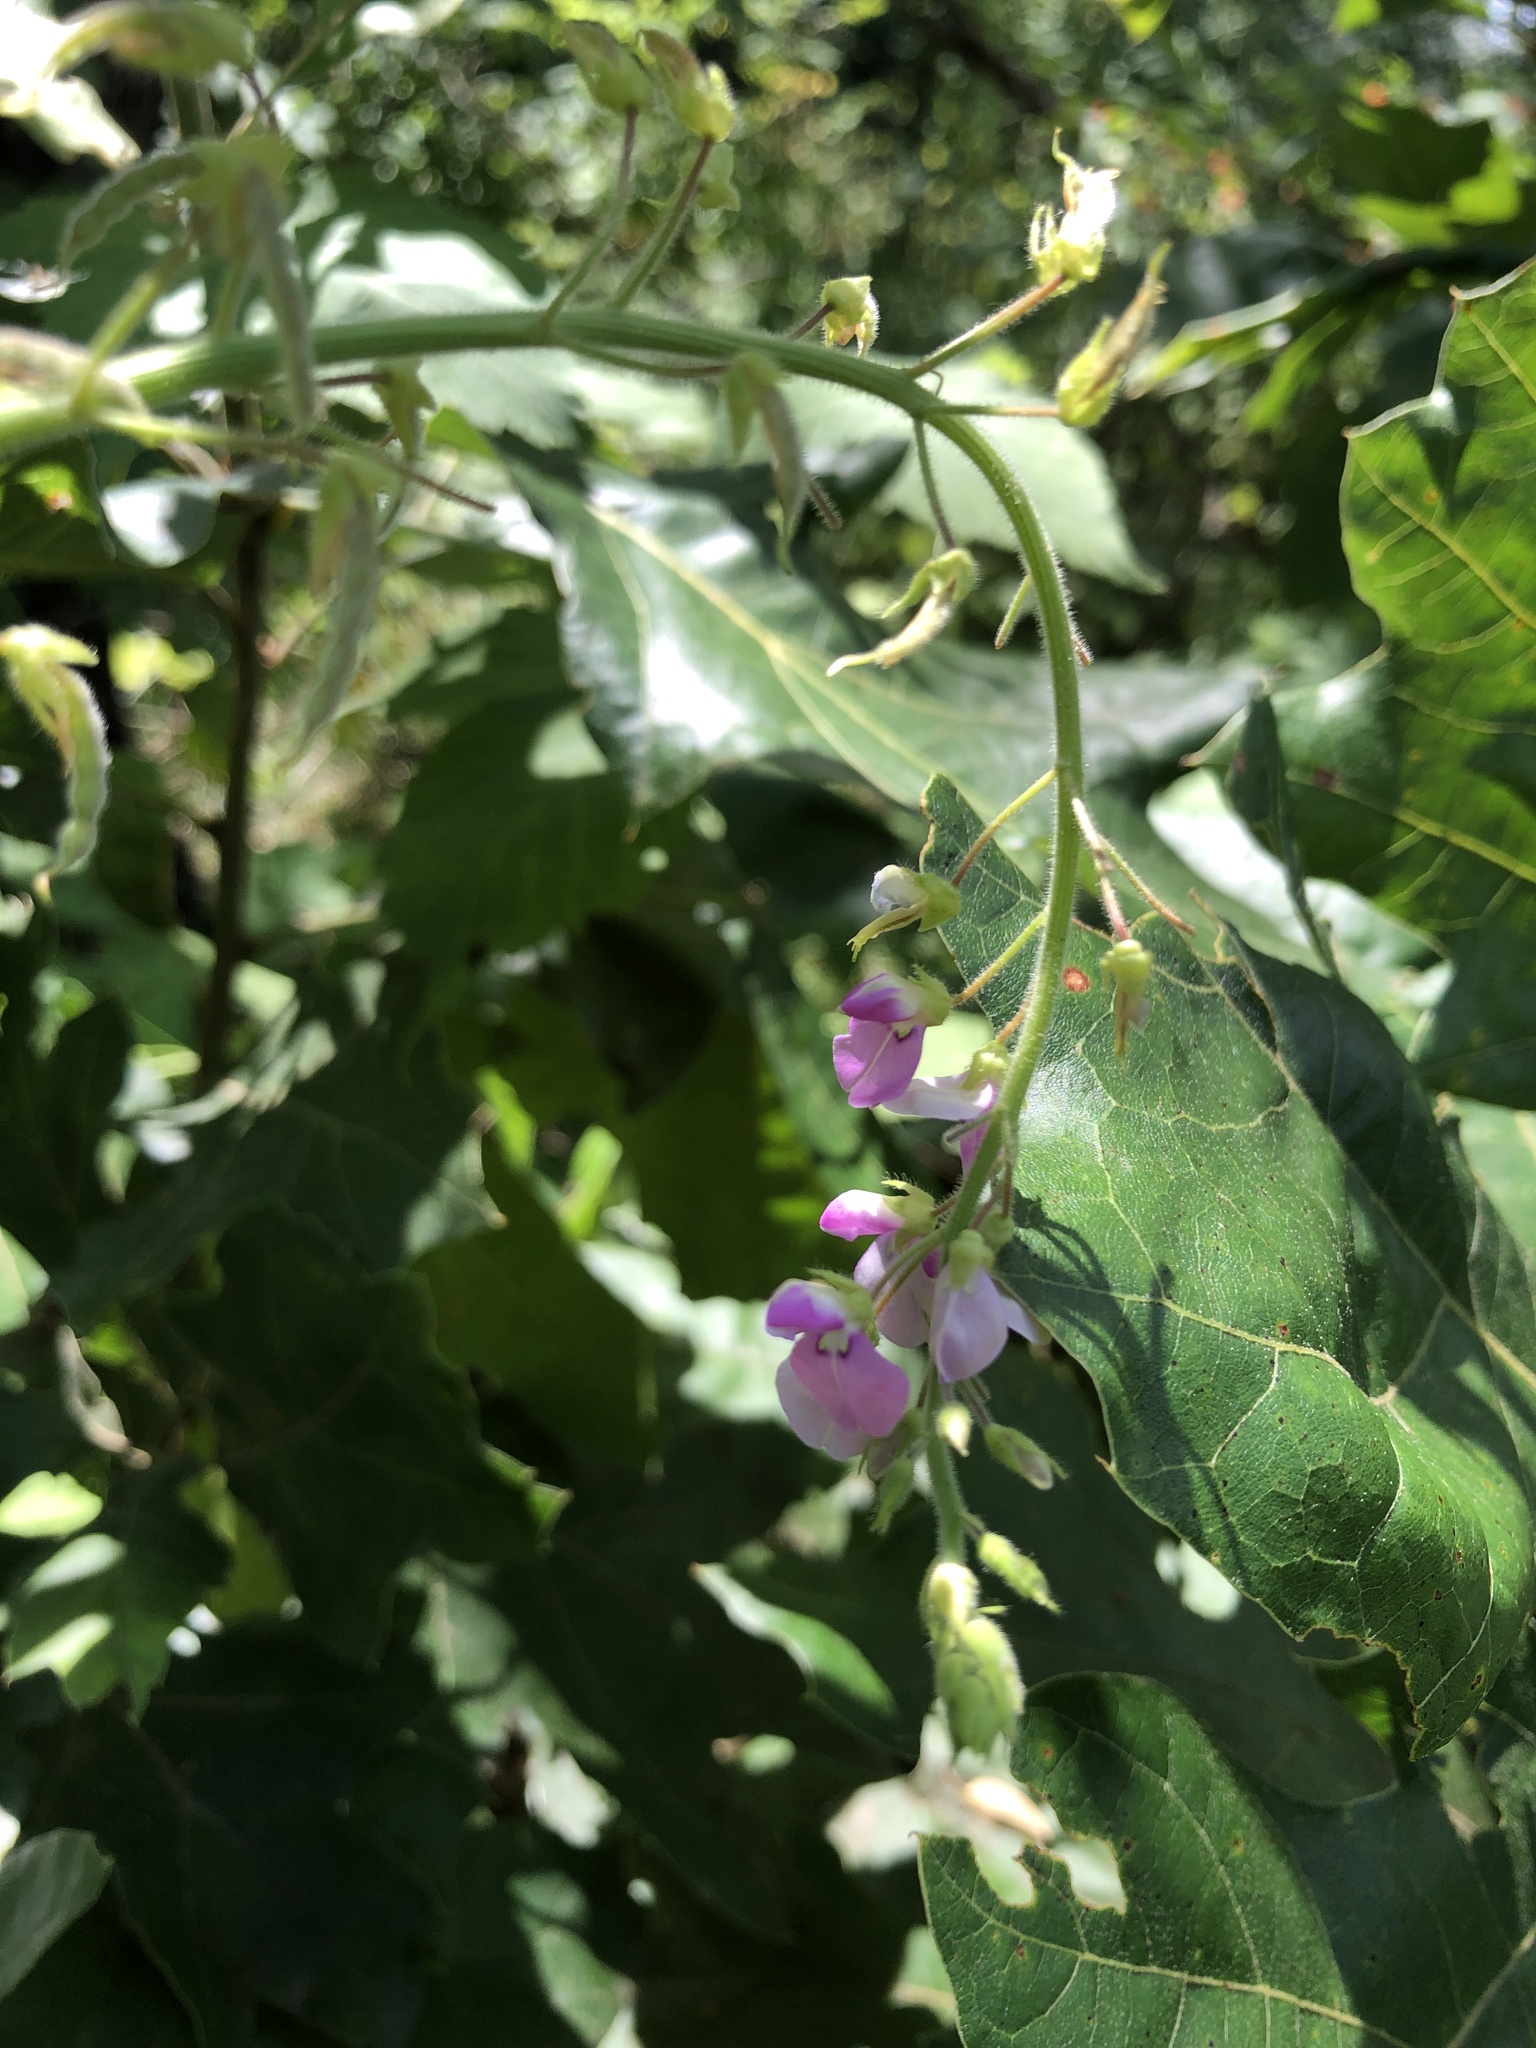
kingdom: Plantae
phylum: Tracheophyta
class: Magnoliopsida
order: Fabales
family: Fabaceae
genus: Desmodium
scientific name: Desmodium illinoense
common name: Illinois tick-clover
